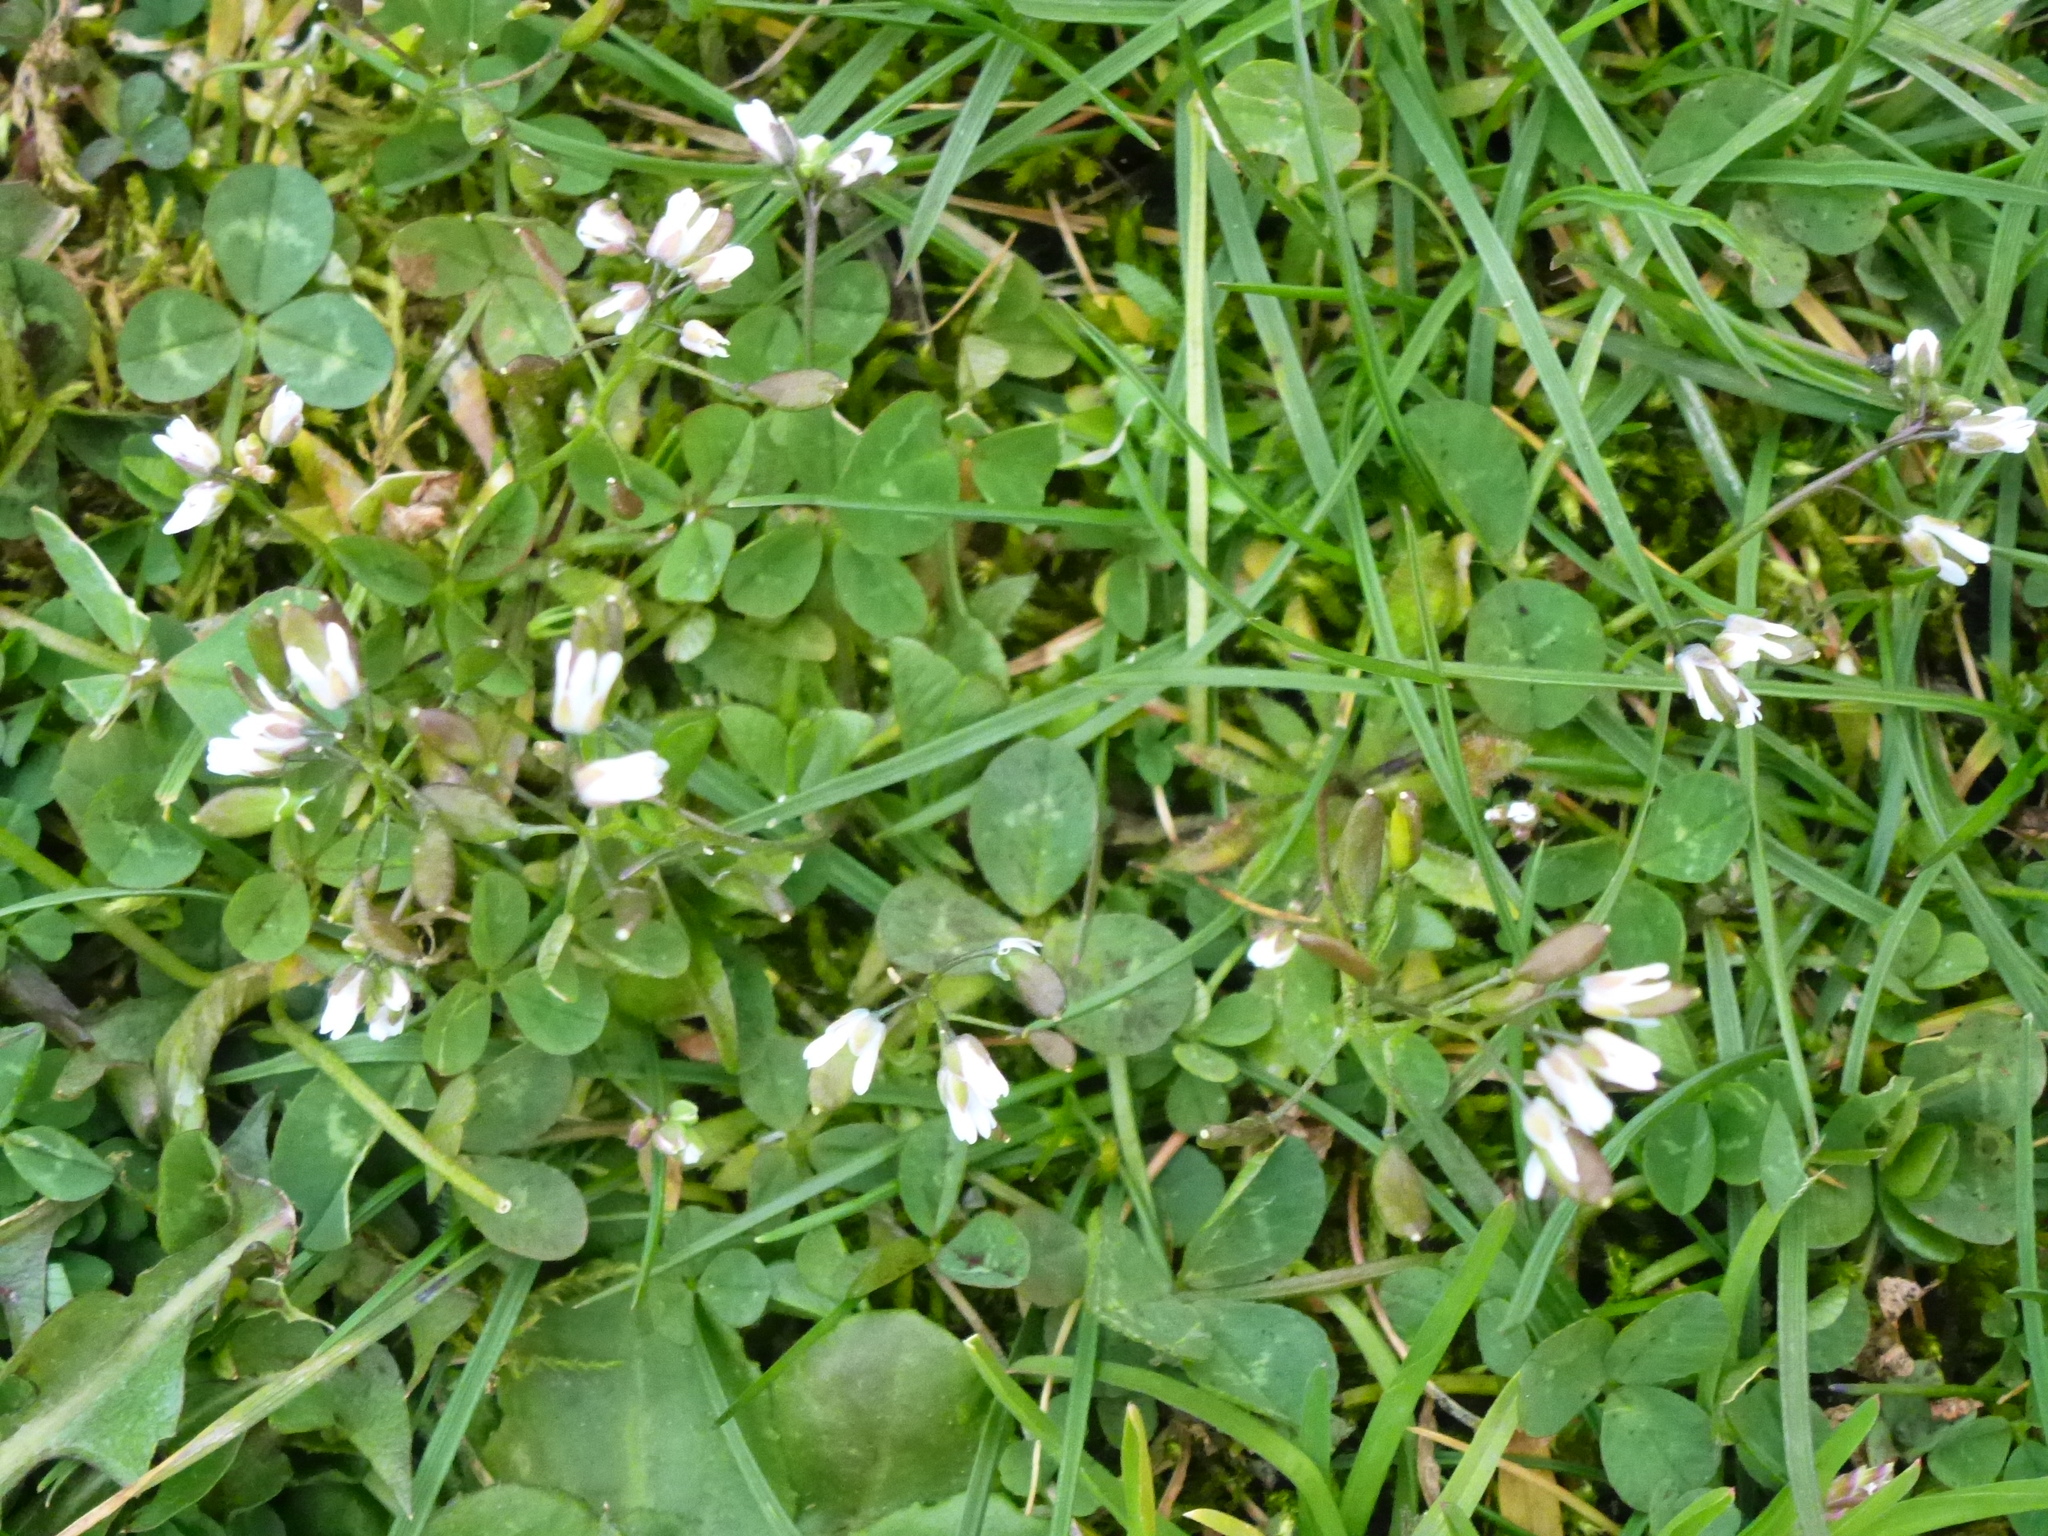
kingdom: Plantae
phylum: Tracheophyta
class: Magnoliopsida
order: Brassicales
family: Brassicaceae
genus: Draba
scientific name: Draba verna
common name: Spring draba
